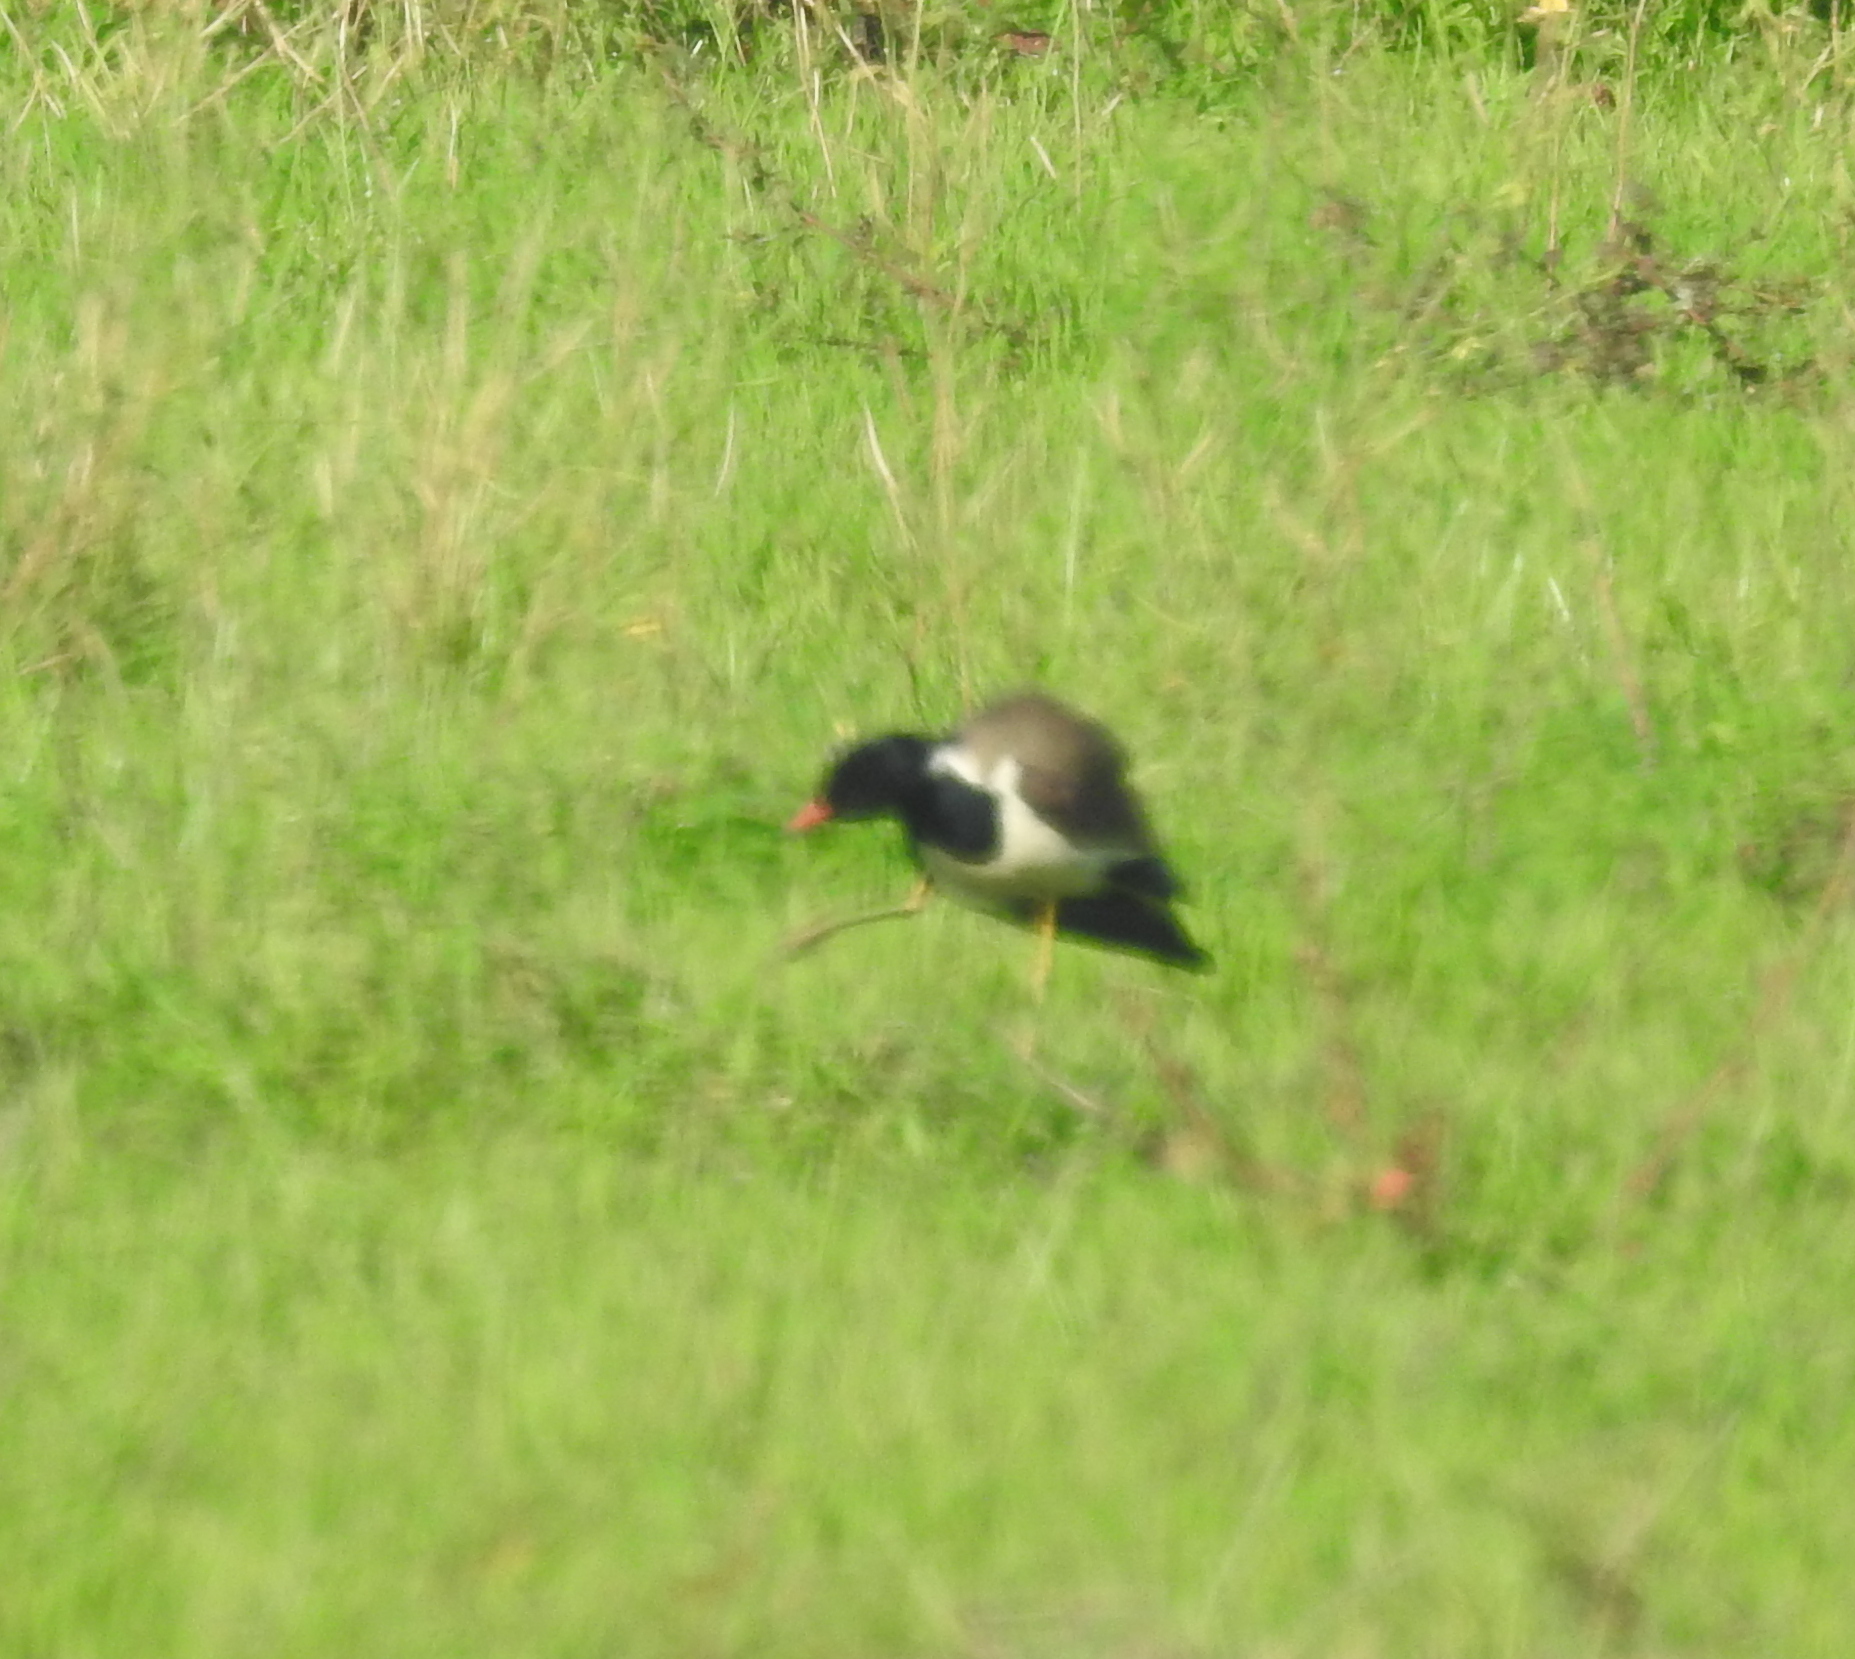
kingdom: Animalia
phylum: Chordata
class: Aves
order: Charadriiformes
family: Charadriidae
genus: Vanellus
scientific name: Vanellus indicus
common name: Red-wattled lapwing
